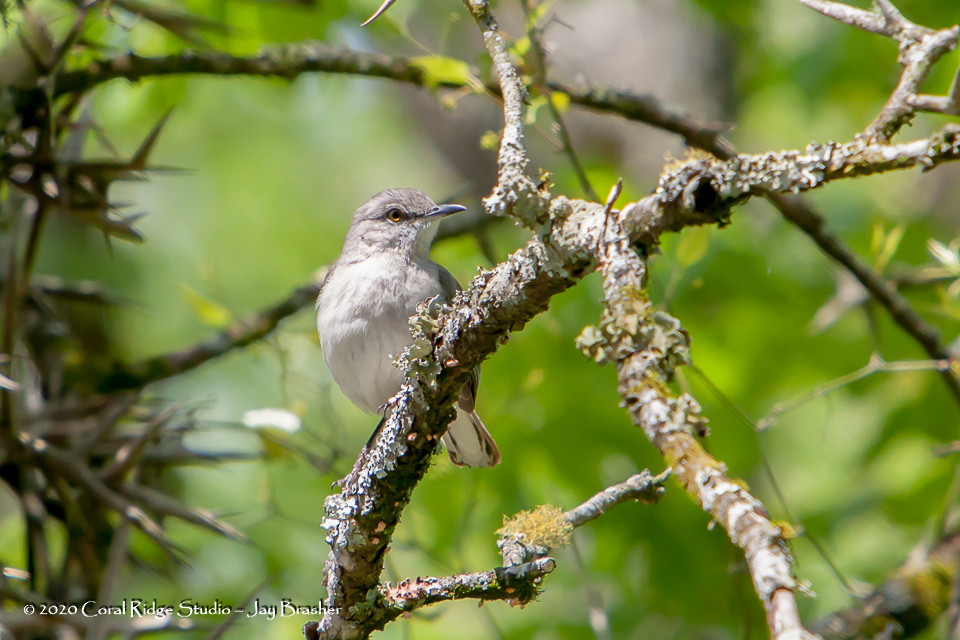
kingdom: Animalia
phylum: Chordata
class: Aves
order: Passeriformes
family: Mimidae
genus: Mimus
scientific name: Mimus polyglottos
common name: Northern mockingbird
